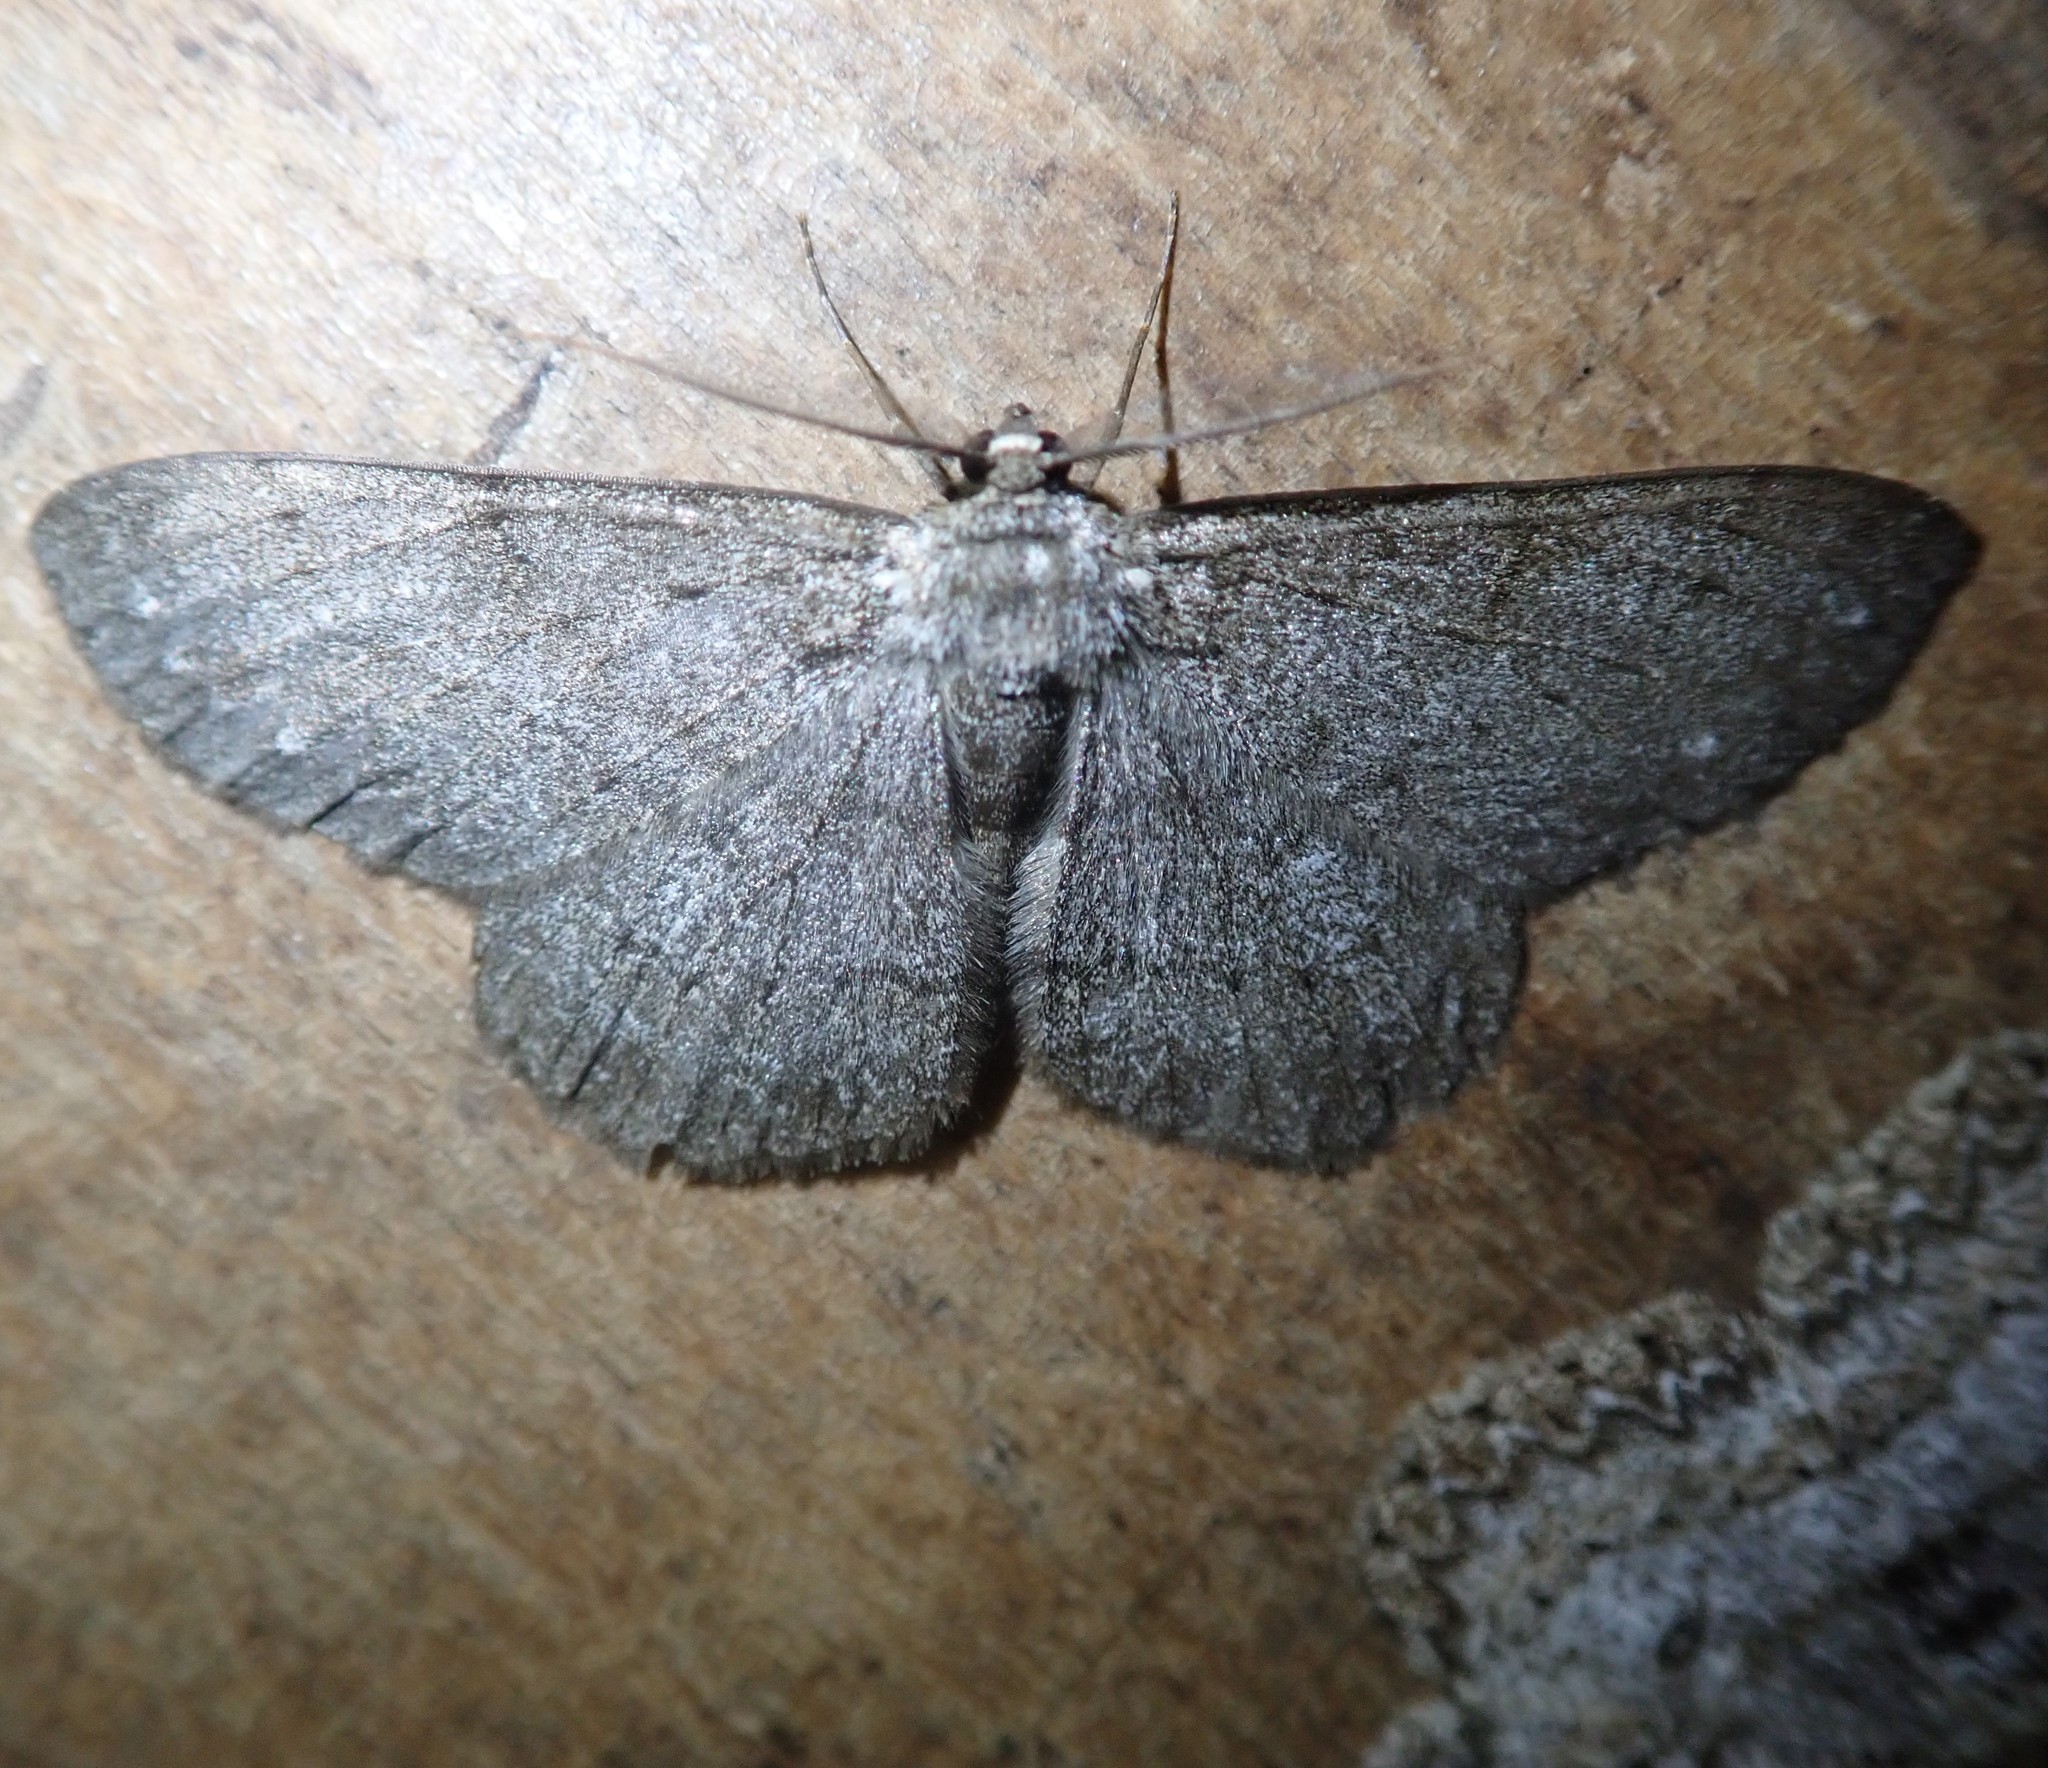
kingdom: Animalia
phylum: Arthropoda
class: Insecta
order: Lepidoptera
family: Geometridae
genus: Hypomecis
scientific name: Hypomecis punctinalis
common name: Pale oak beauty
